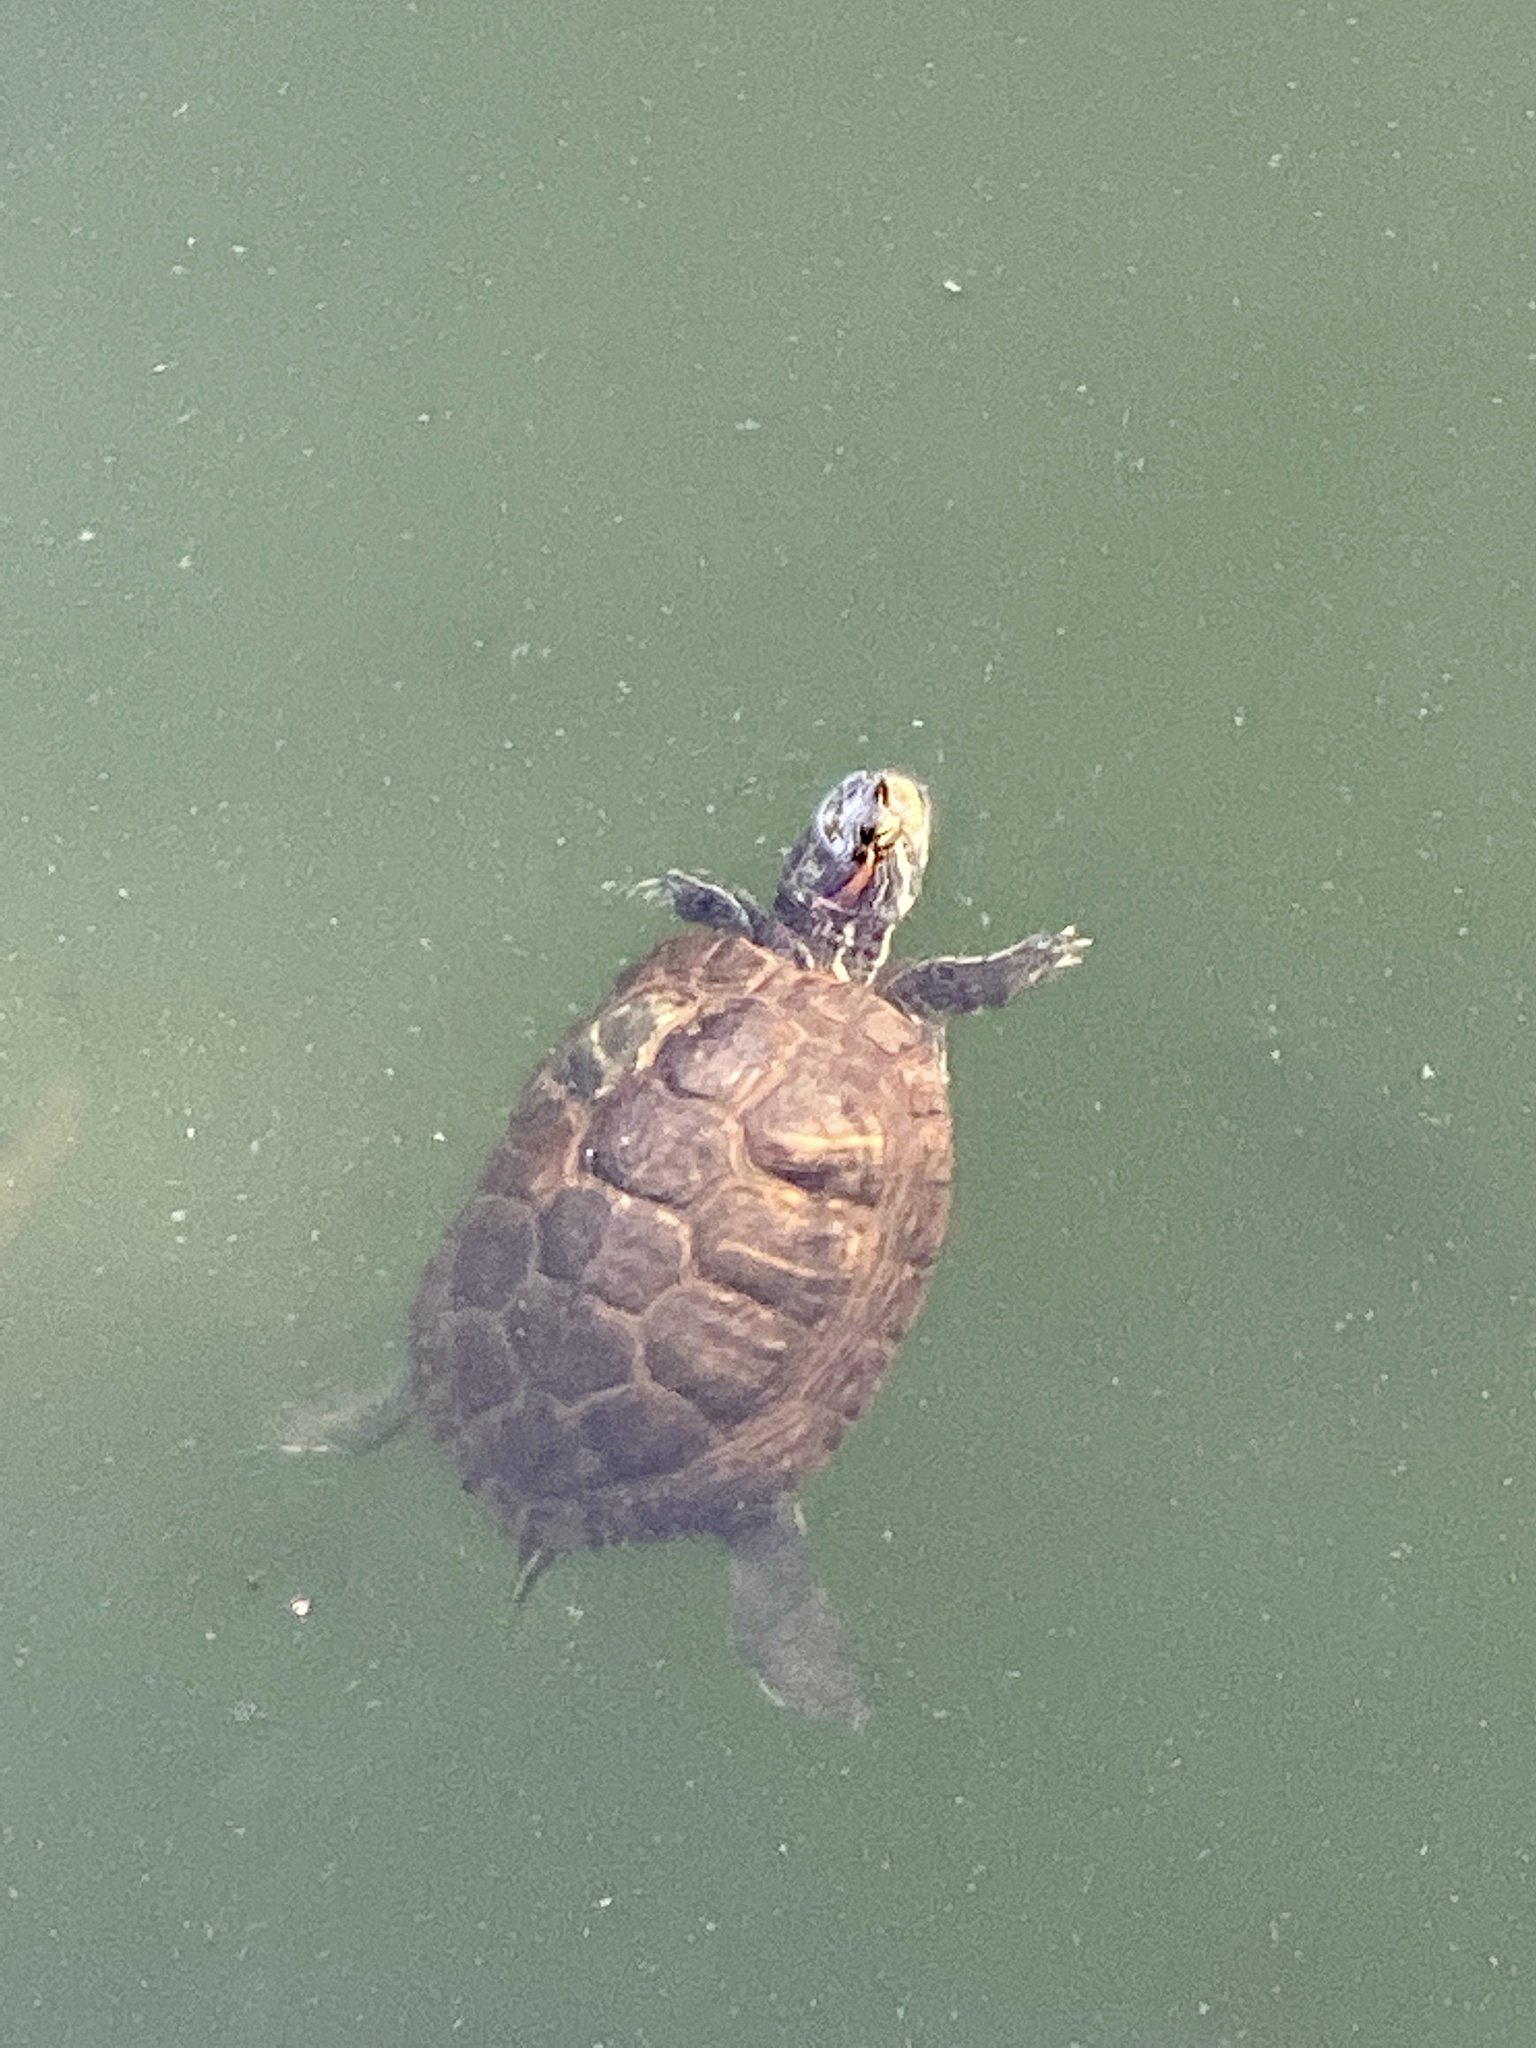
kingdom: Animalia
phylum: Chordata
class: Testudines
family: Emydidae
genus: Trachemys
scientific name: Trachemys scripta
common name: Slider
